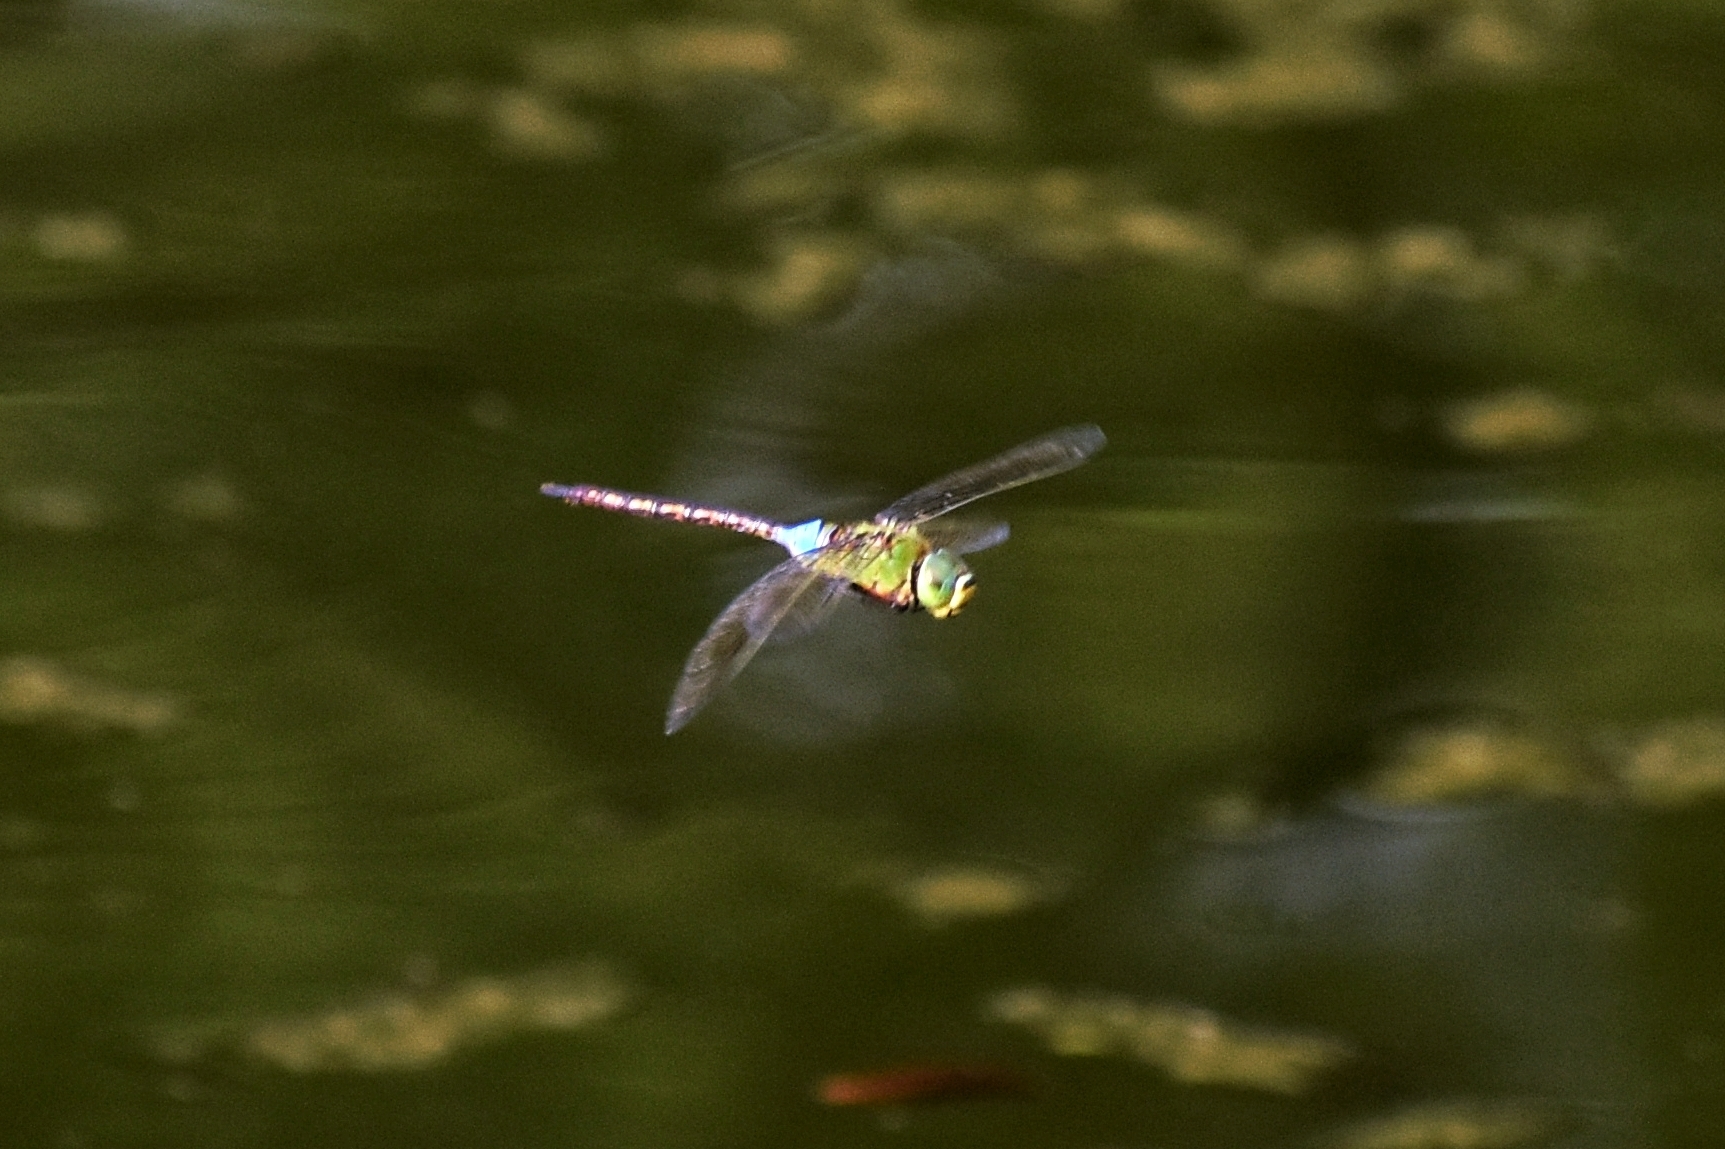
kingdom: Animalia
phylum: Arthropoda
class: Insecta
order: Odonata
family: Aeshnidae
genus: Anax
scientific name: Anax guttatus
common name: Emperor
